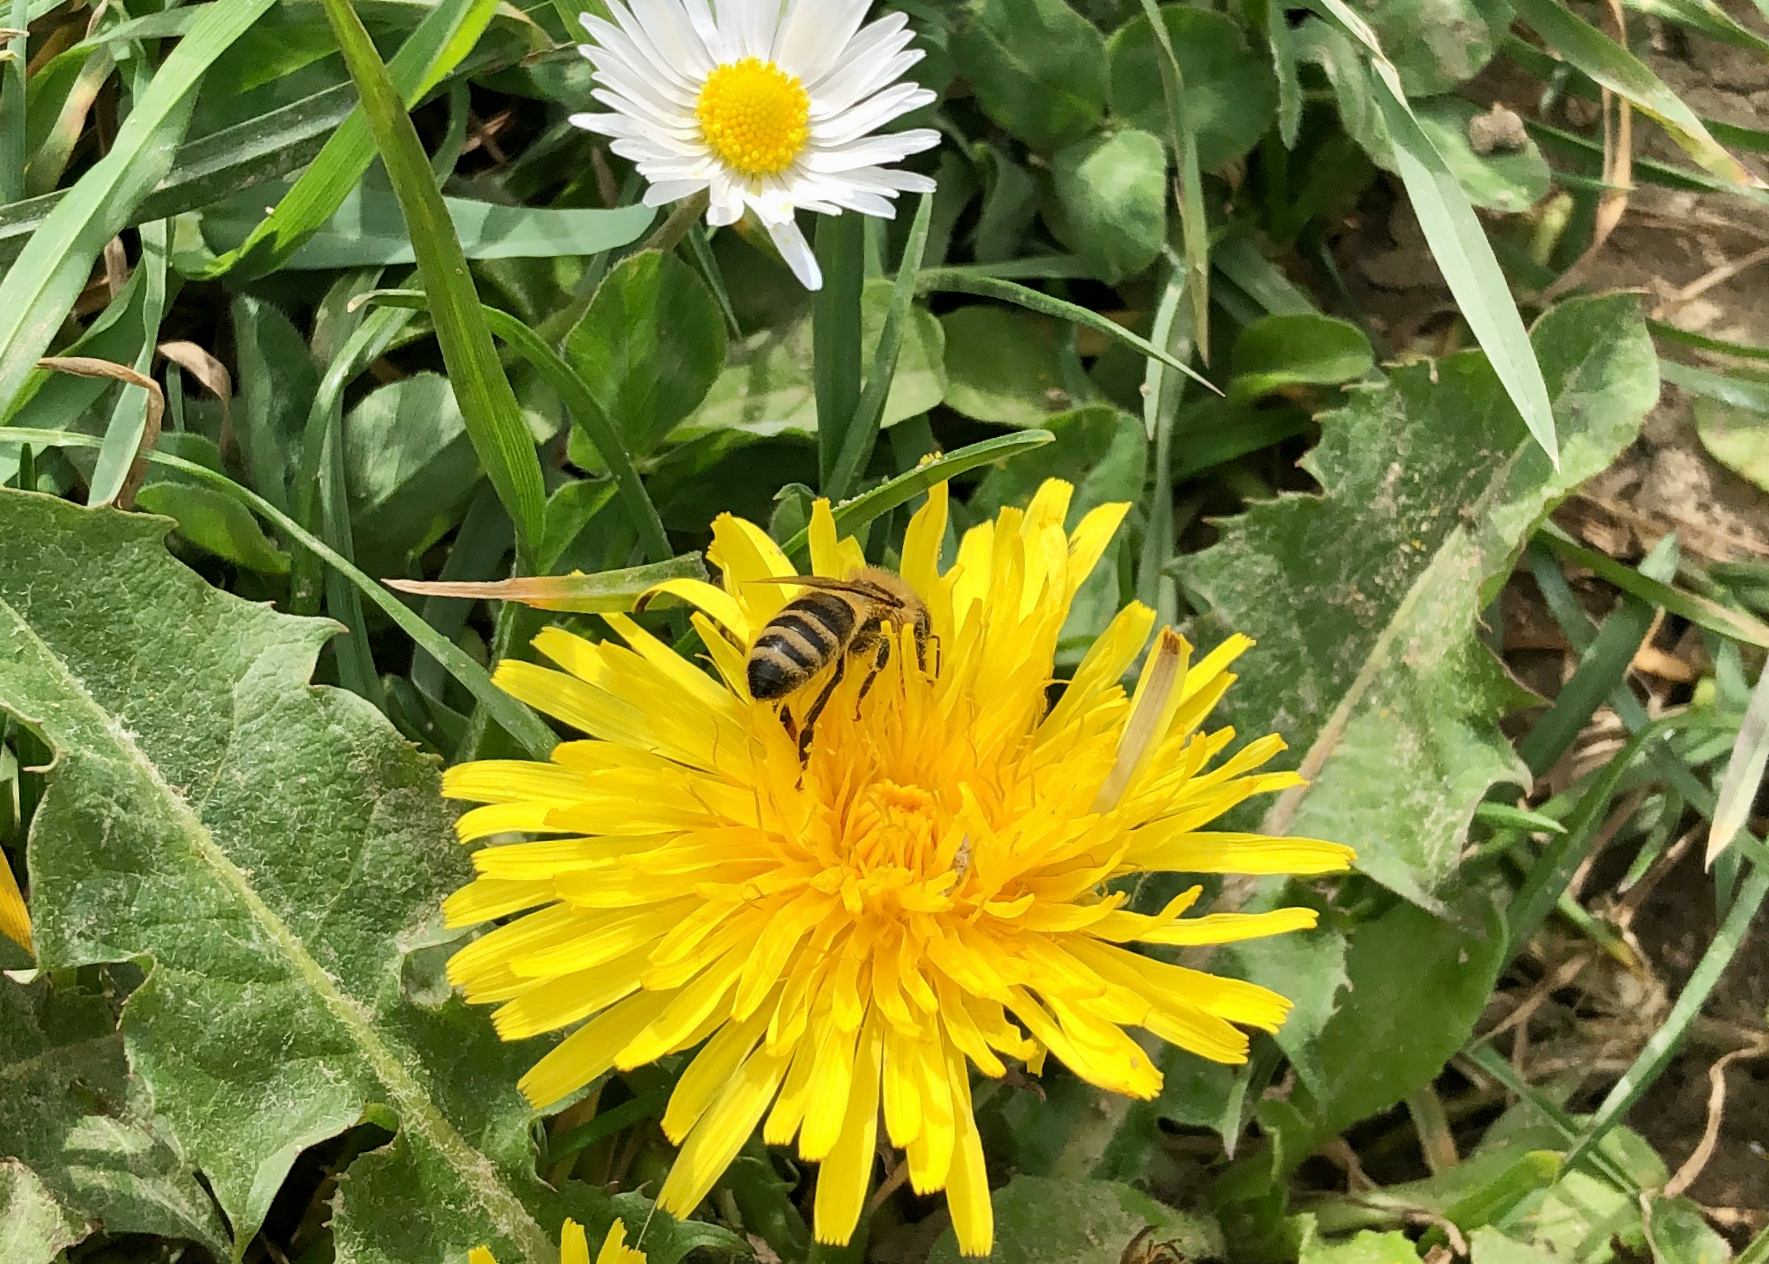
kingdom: Animalia
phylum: Arthropoda
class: Insecta
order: Hymenoptera
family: Apidae
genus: Apis
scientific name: Apis mellifera
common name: Honey bee
